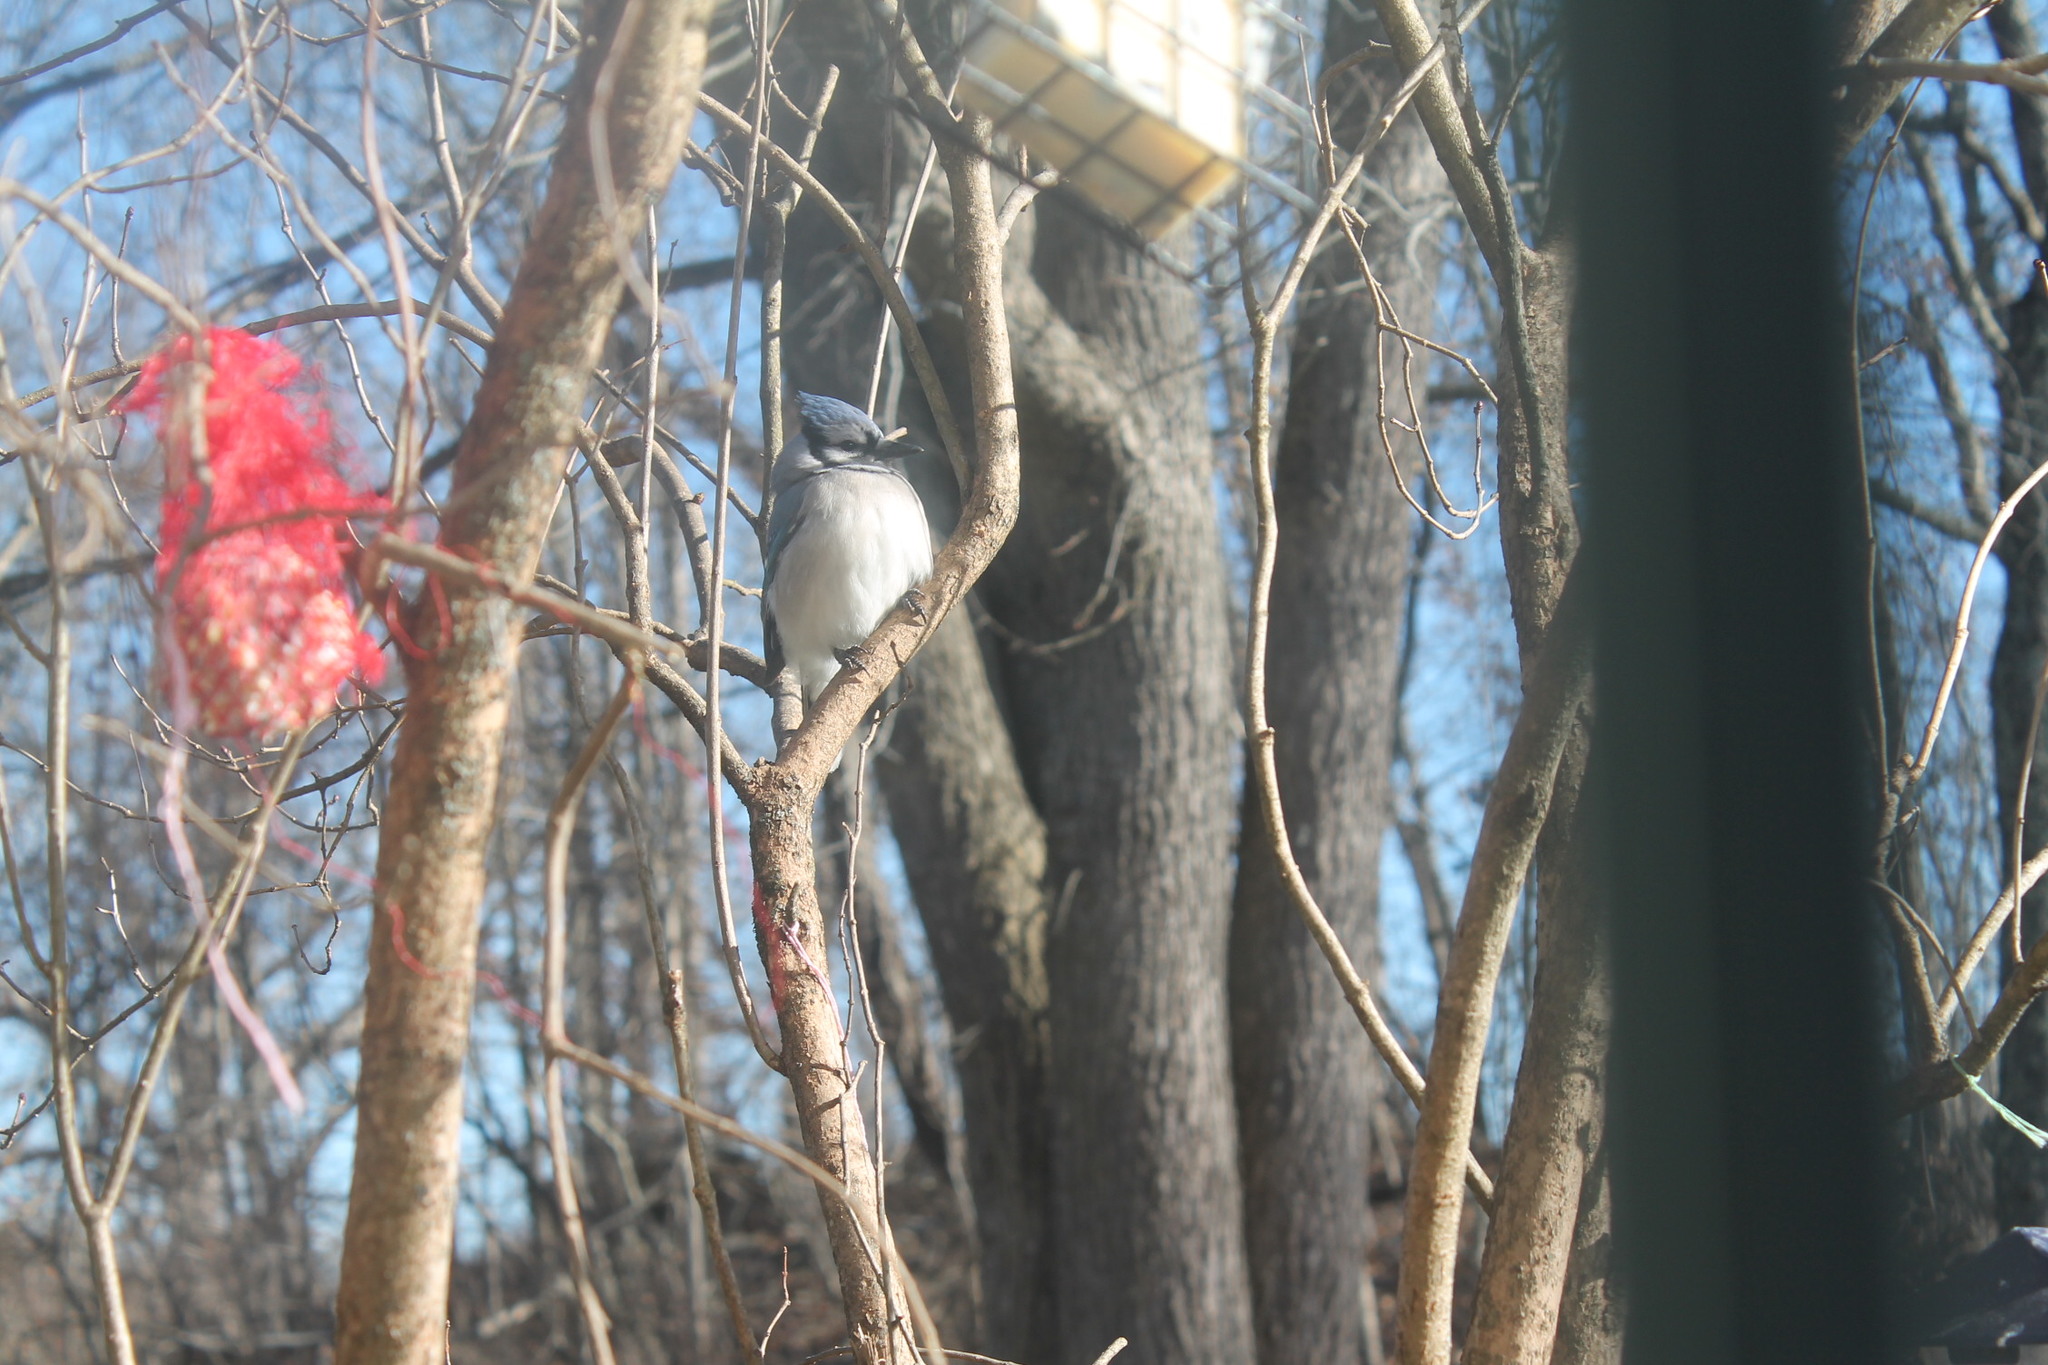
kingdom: Animalia
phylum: Chordata
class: Aves
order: Passeriformes
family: Corvidae
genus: Cyanocitta
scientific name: Cyanocitta cristata
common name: Blue jay
